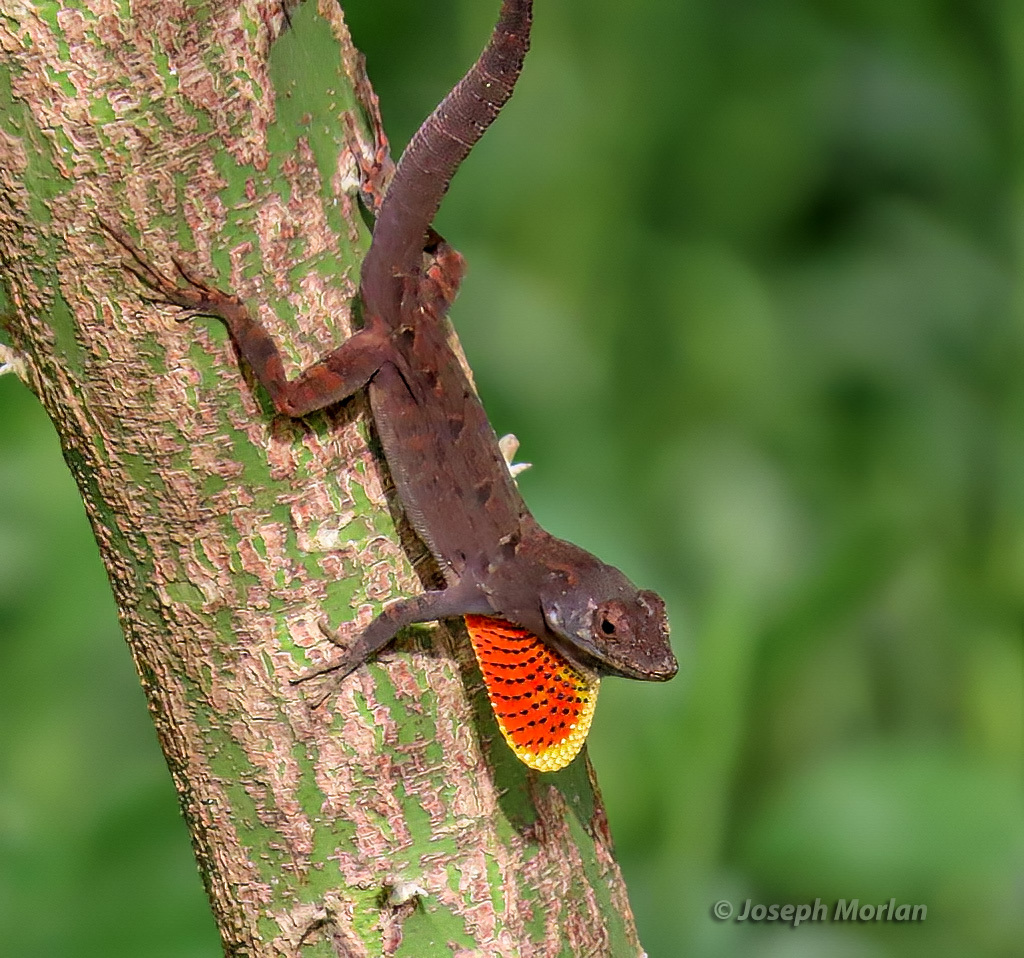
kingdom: Animalia
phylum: Chordata
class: Squamata
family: Dactyloidae
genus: Anolis
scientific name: Anolis sagrei
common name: Brown anole
